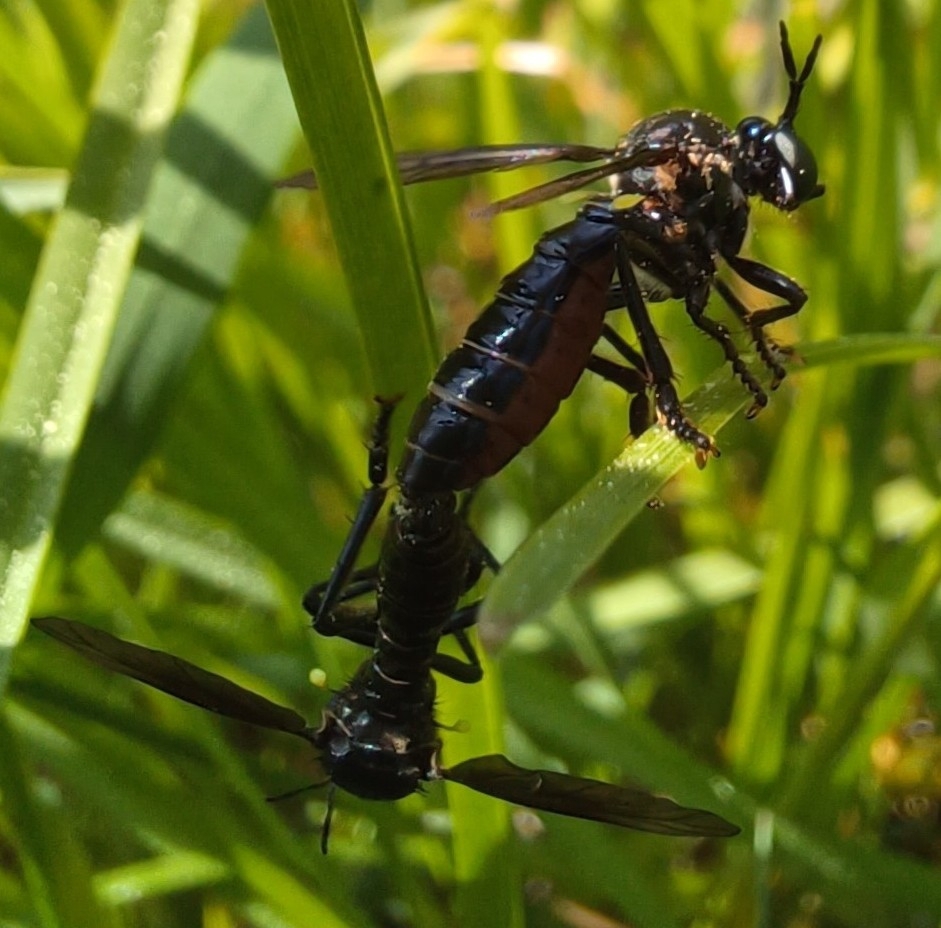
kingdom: Animalia
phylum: Arthropoda
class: Insecta
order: Diptera
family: Asilidae
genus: Dioctria
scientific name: Dioctria atricapilla
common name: Violet black-legged
